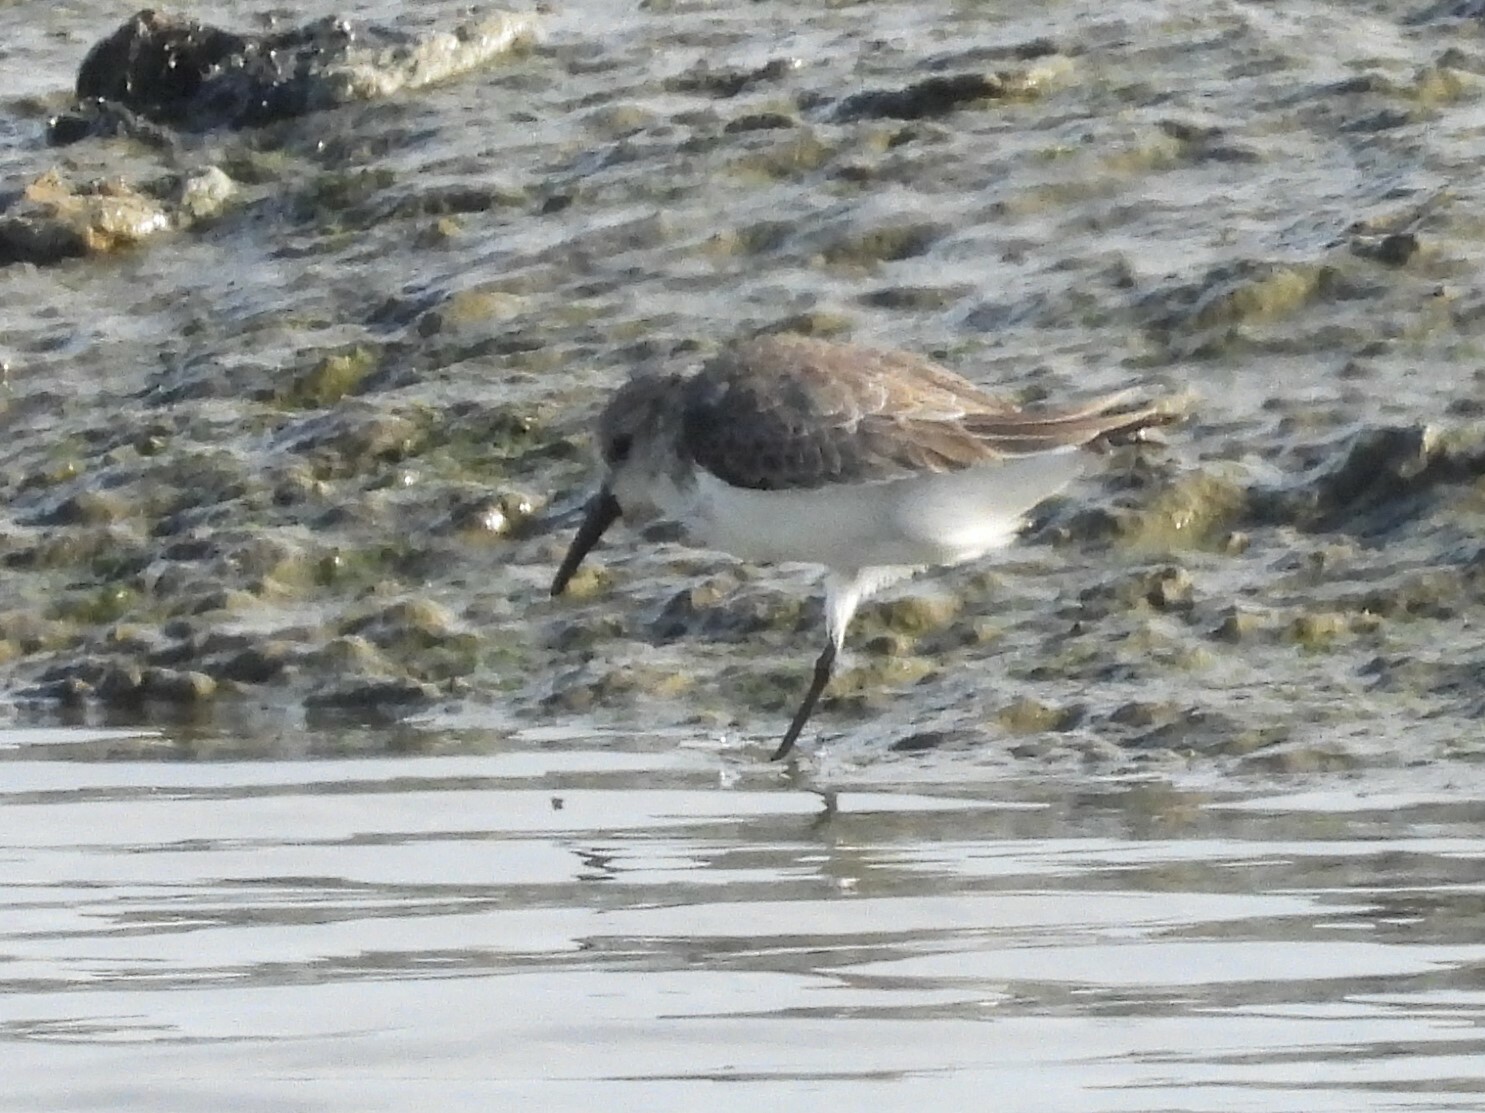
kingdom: Animalia
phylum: Chordata
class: Aves
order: Charadriiformes
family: Scolopacidae
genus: Calidris
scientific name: Calidris mauri
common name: Western sandpiper
